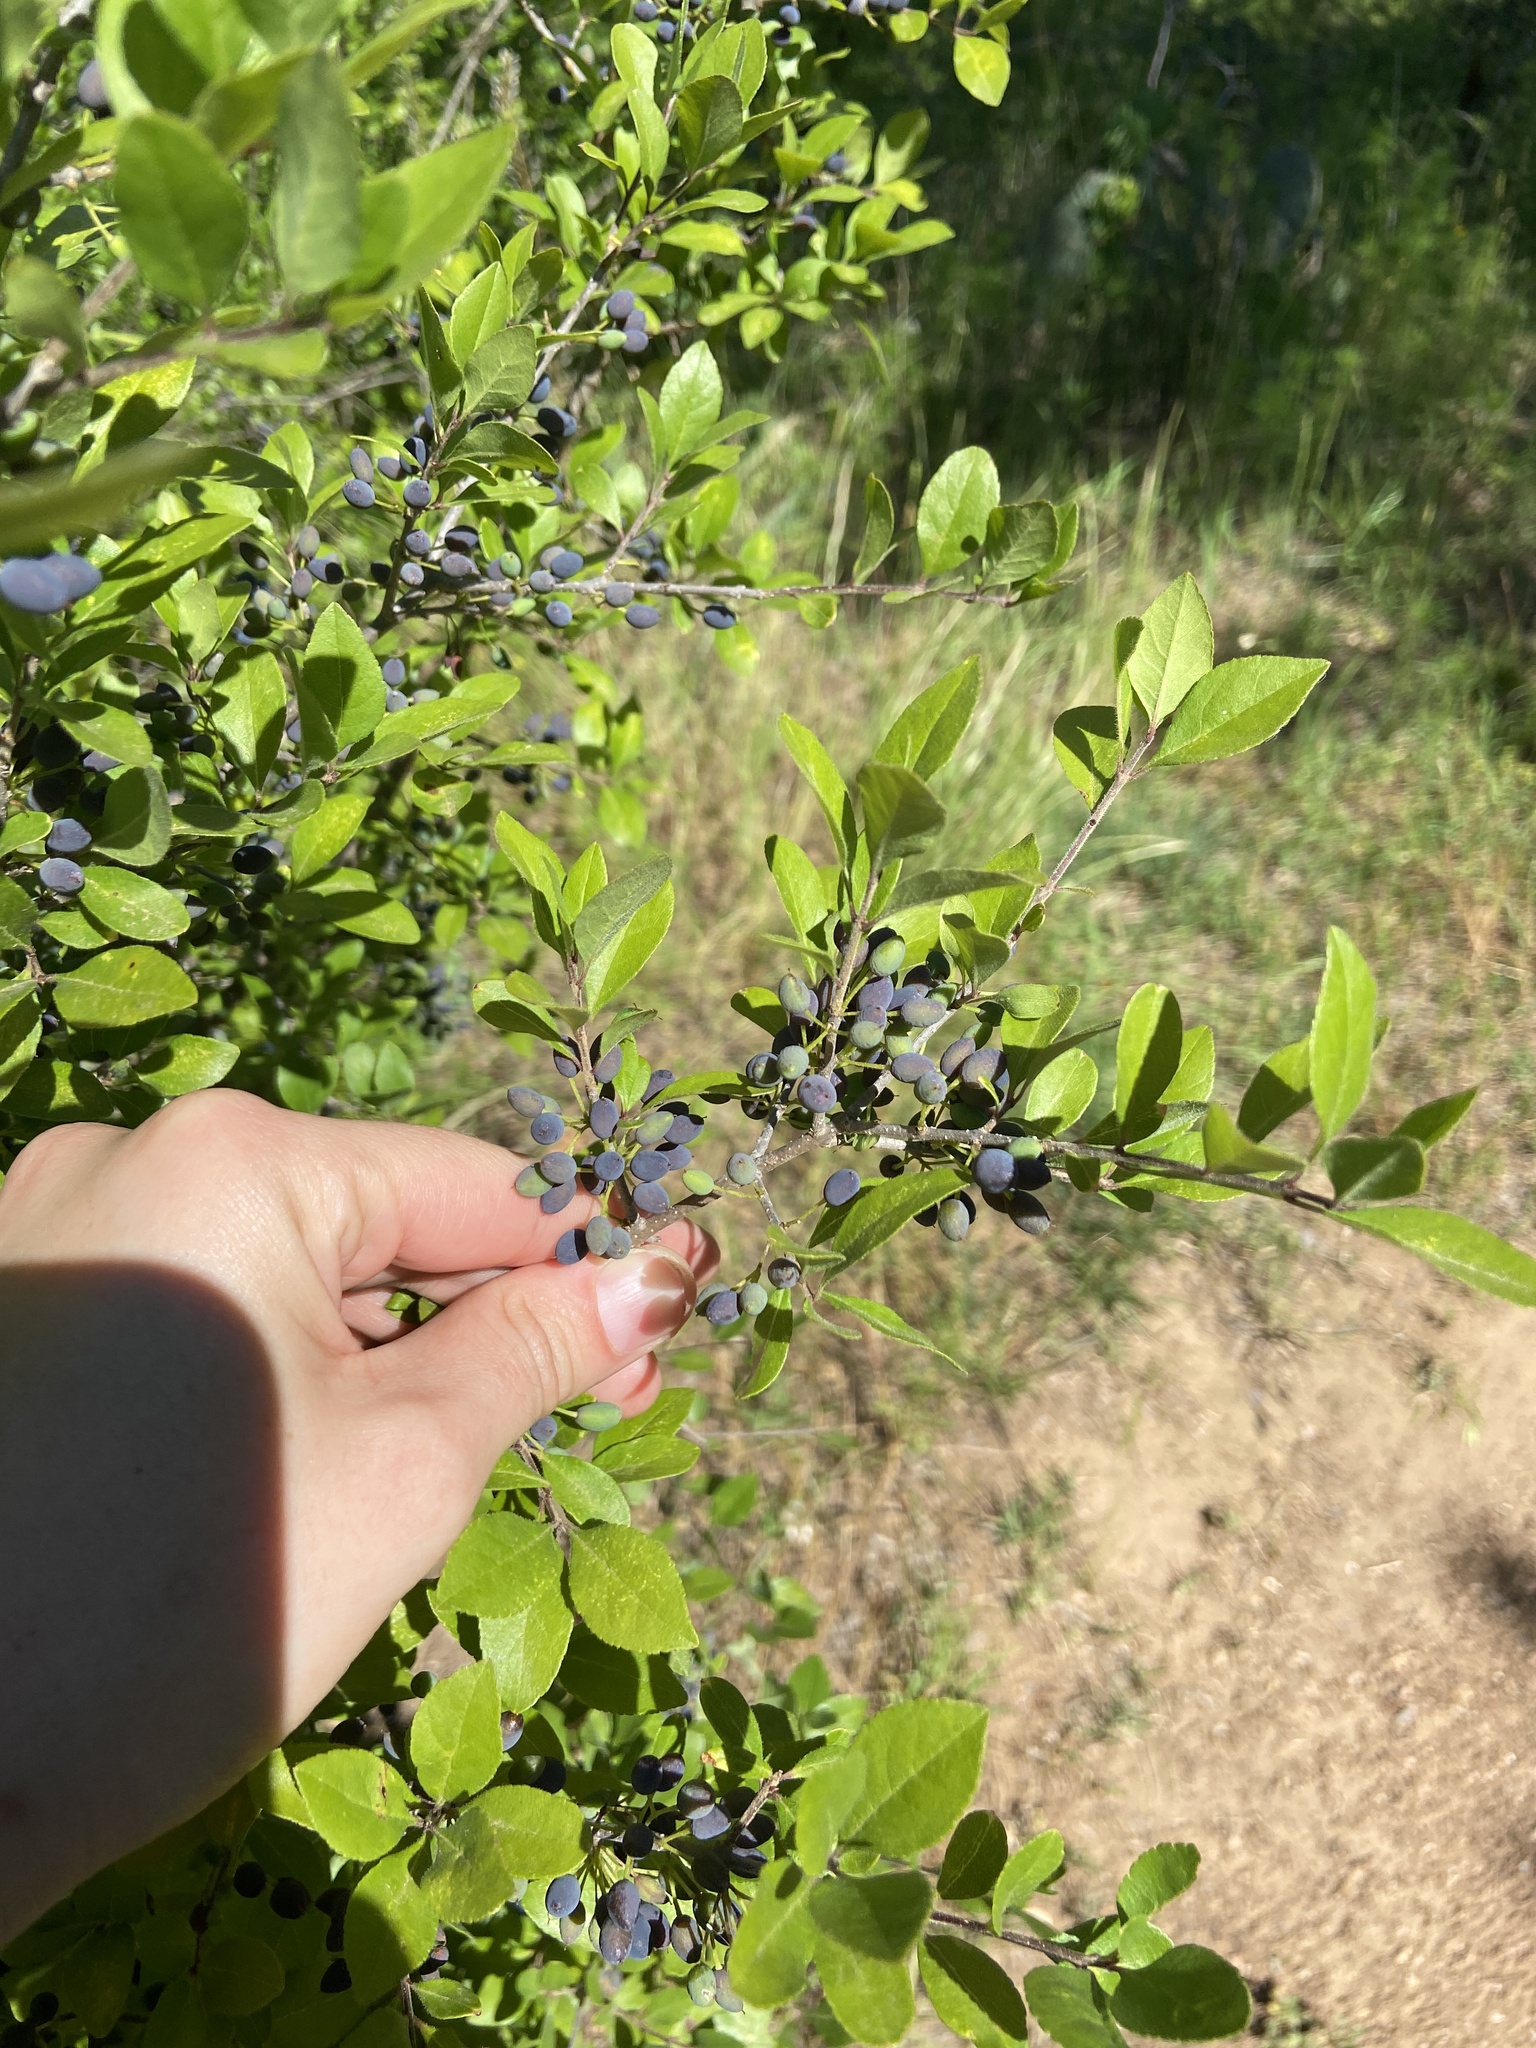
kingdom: Plantae
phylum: Tracheophyta
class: Magnoliopsida
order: Lamiales
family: Oleaceae
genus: Forestiera
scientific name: Forestiera pubescens
